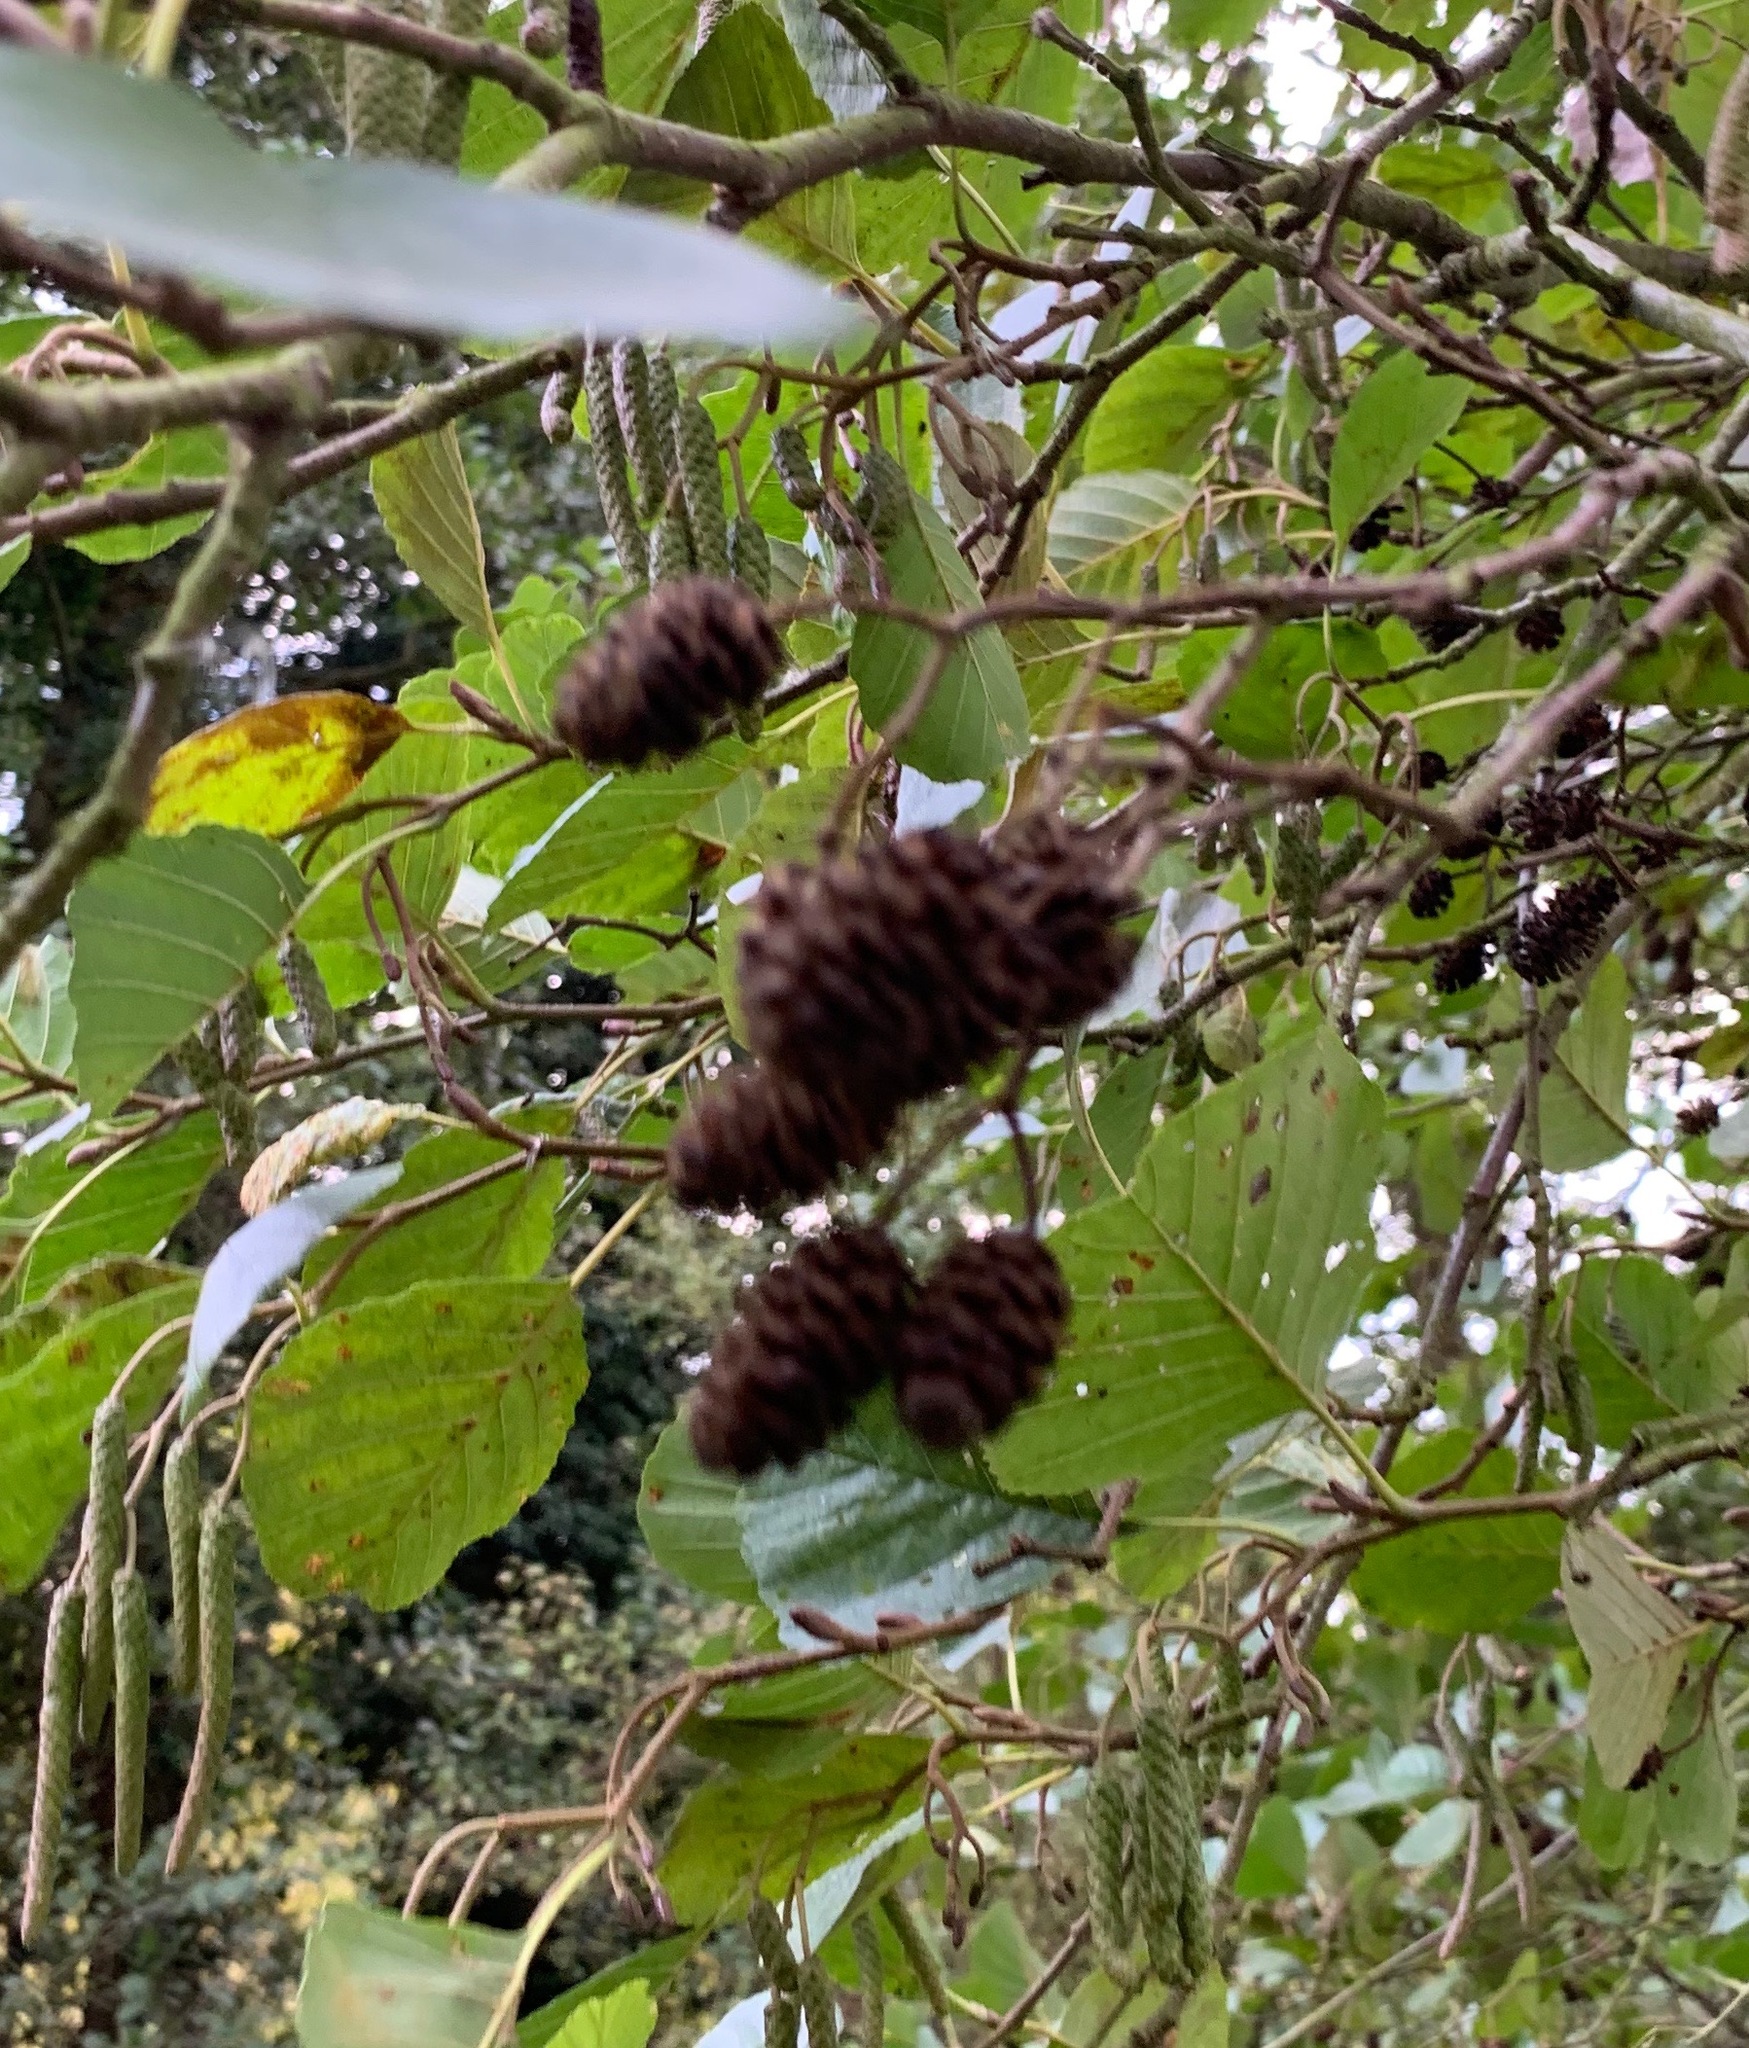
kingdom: Plantae
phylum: Tracheophyta
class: Magnoliopsida
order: Fagales
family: Betulaceae
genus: Alnus
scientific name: Alnus glutinosa
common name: Black alder
